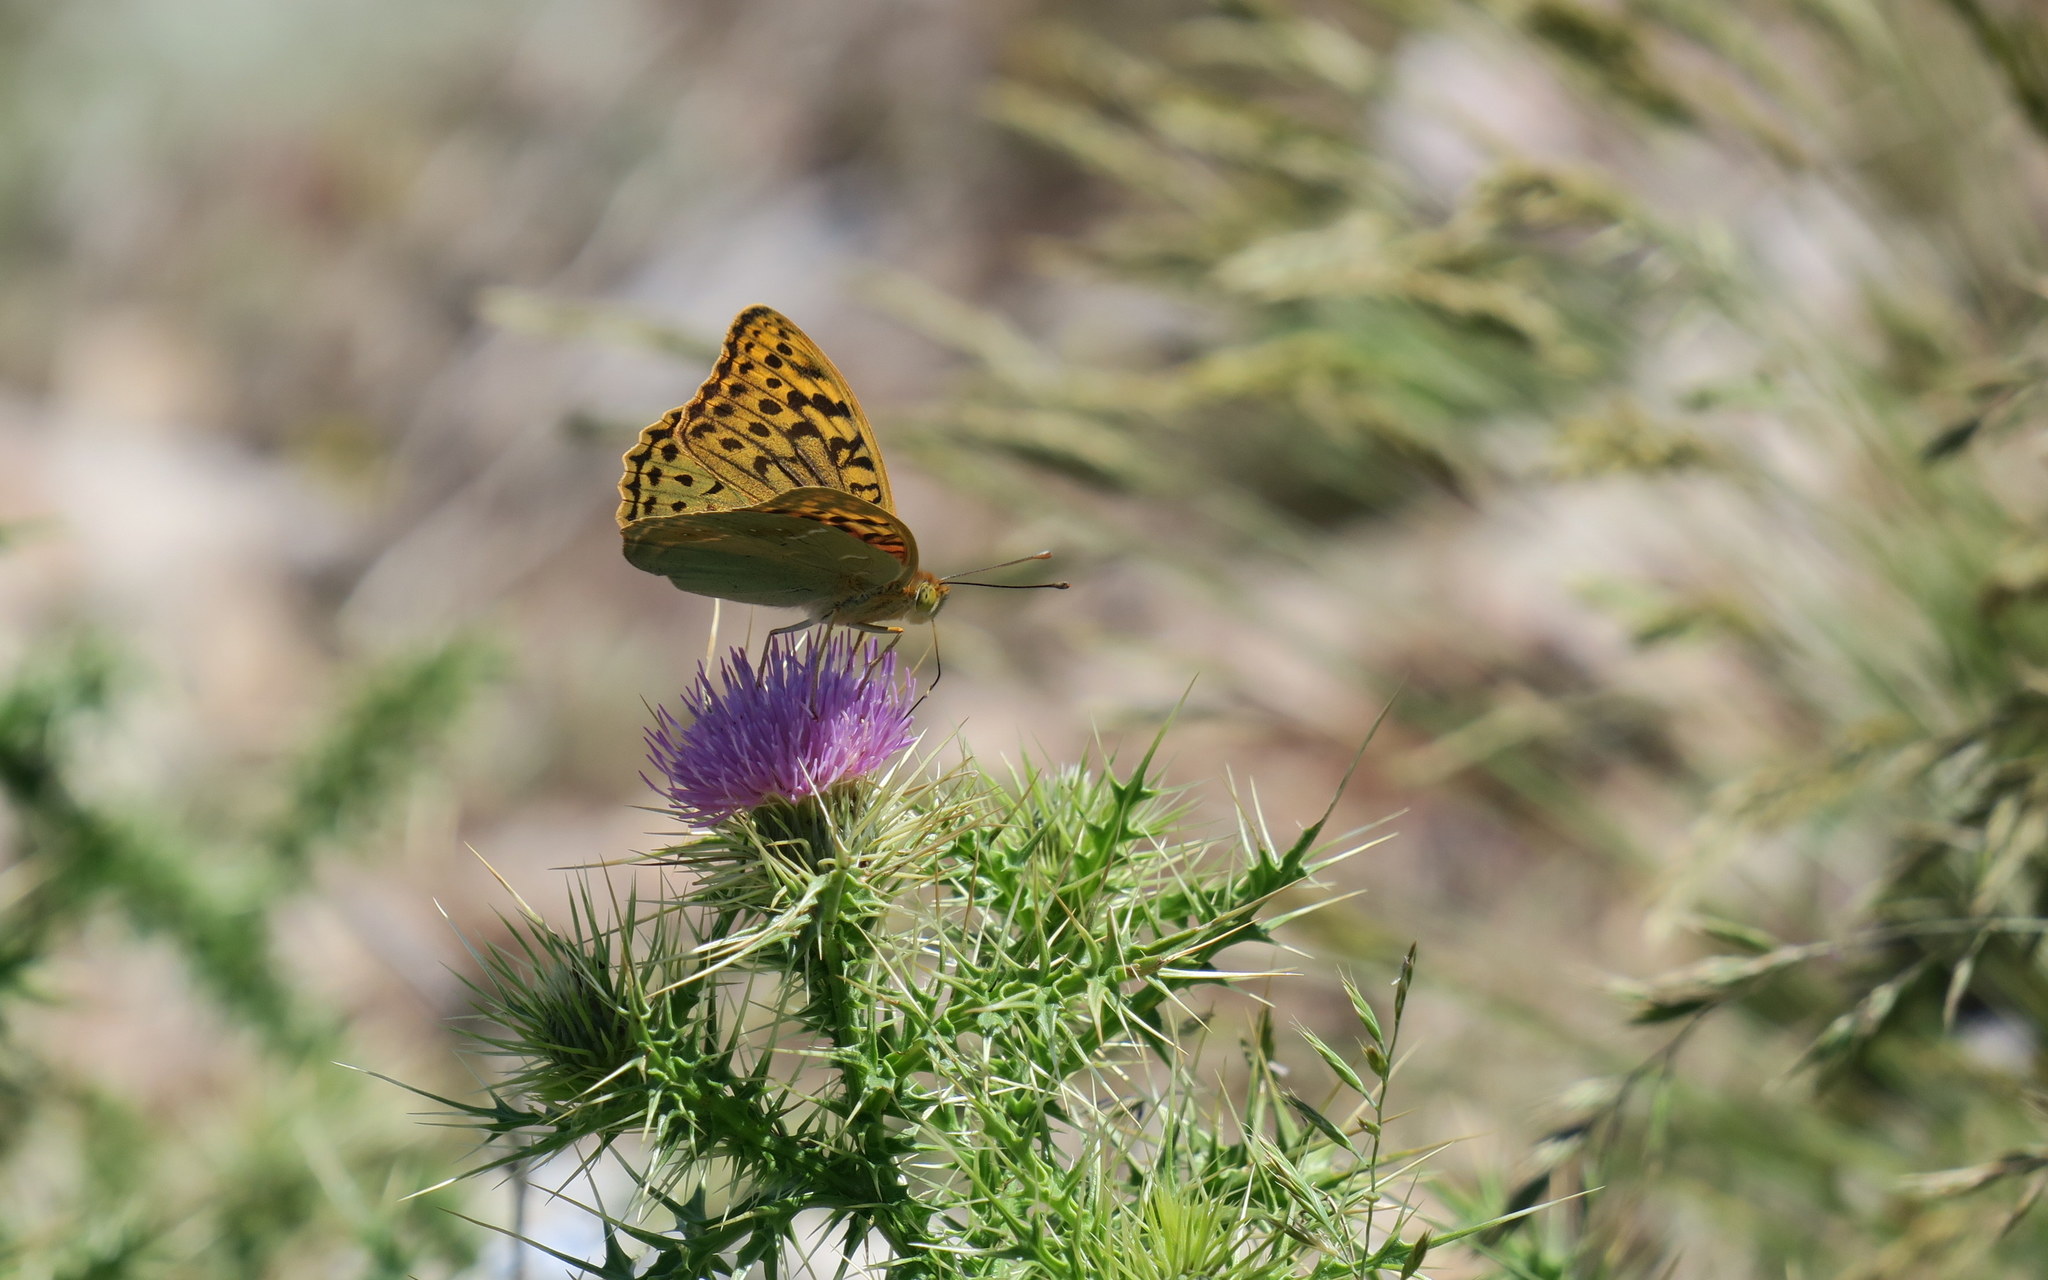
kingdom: Animalia
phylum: Arthropoda
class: Insecta
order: Lepidoptera
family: Nymphalidae
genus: Damora
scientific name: Damora pandora
